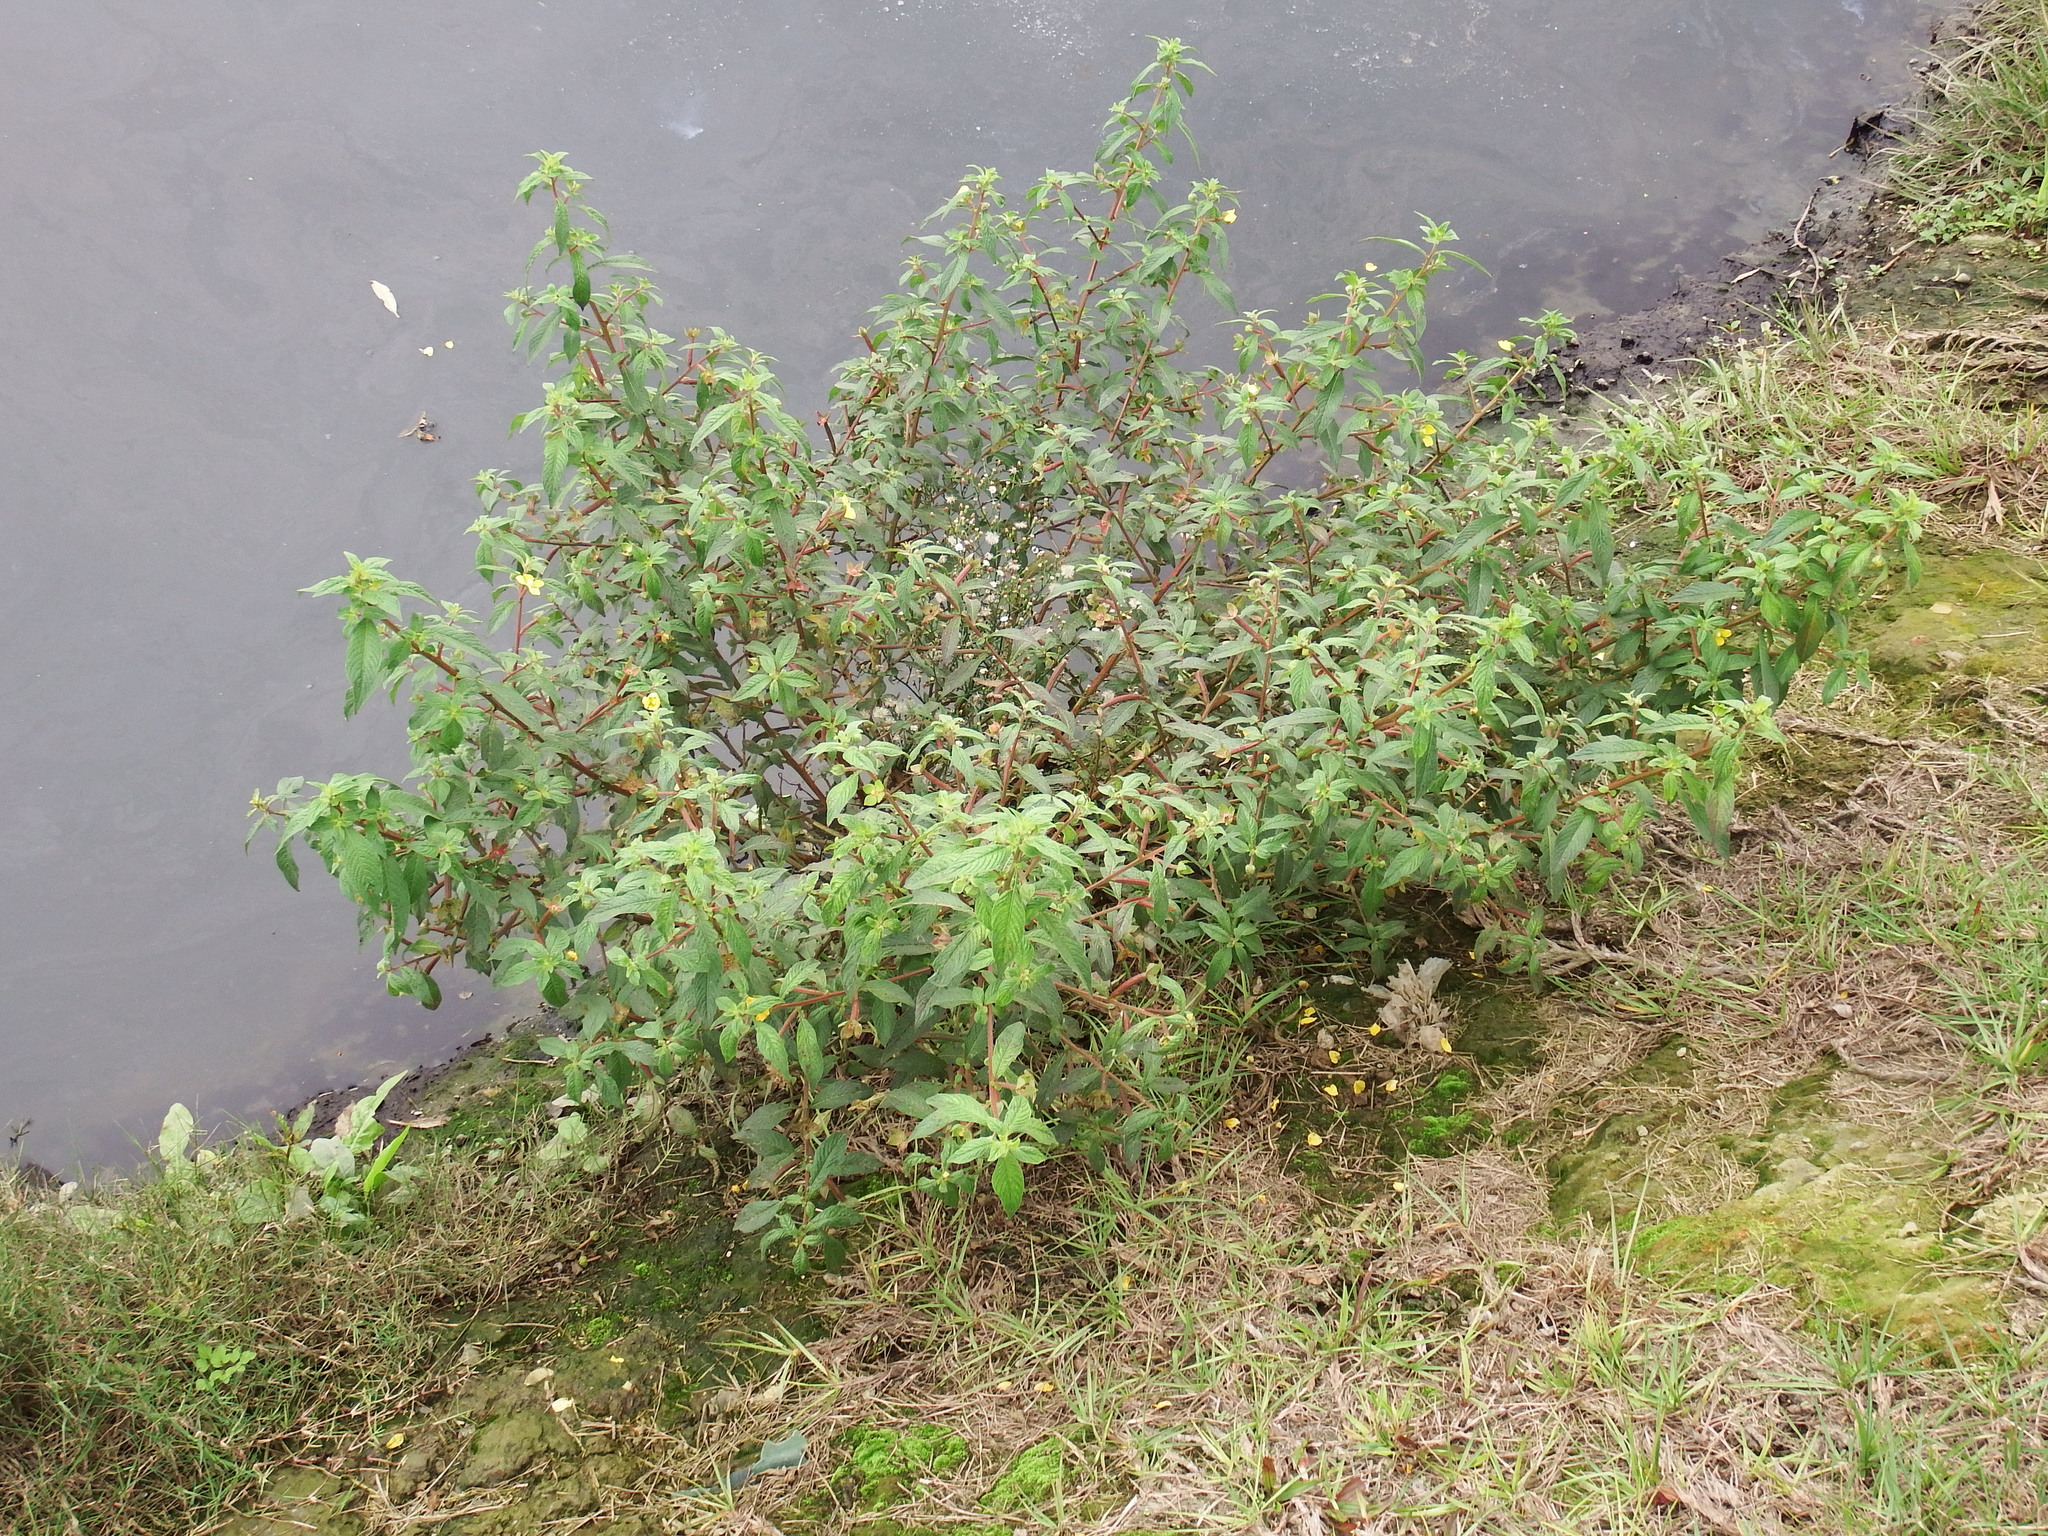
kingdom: Plantae
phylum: Tracheophyta
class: Magnoliopsida
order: Myrtales
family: Onagraceae
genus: Ludwigia
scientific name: Ludwigia octovalvis
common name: Water-primrose
